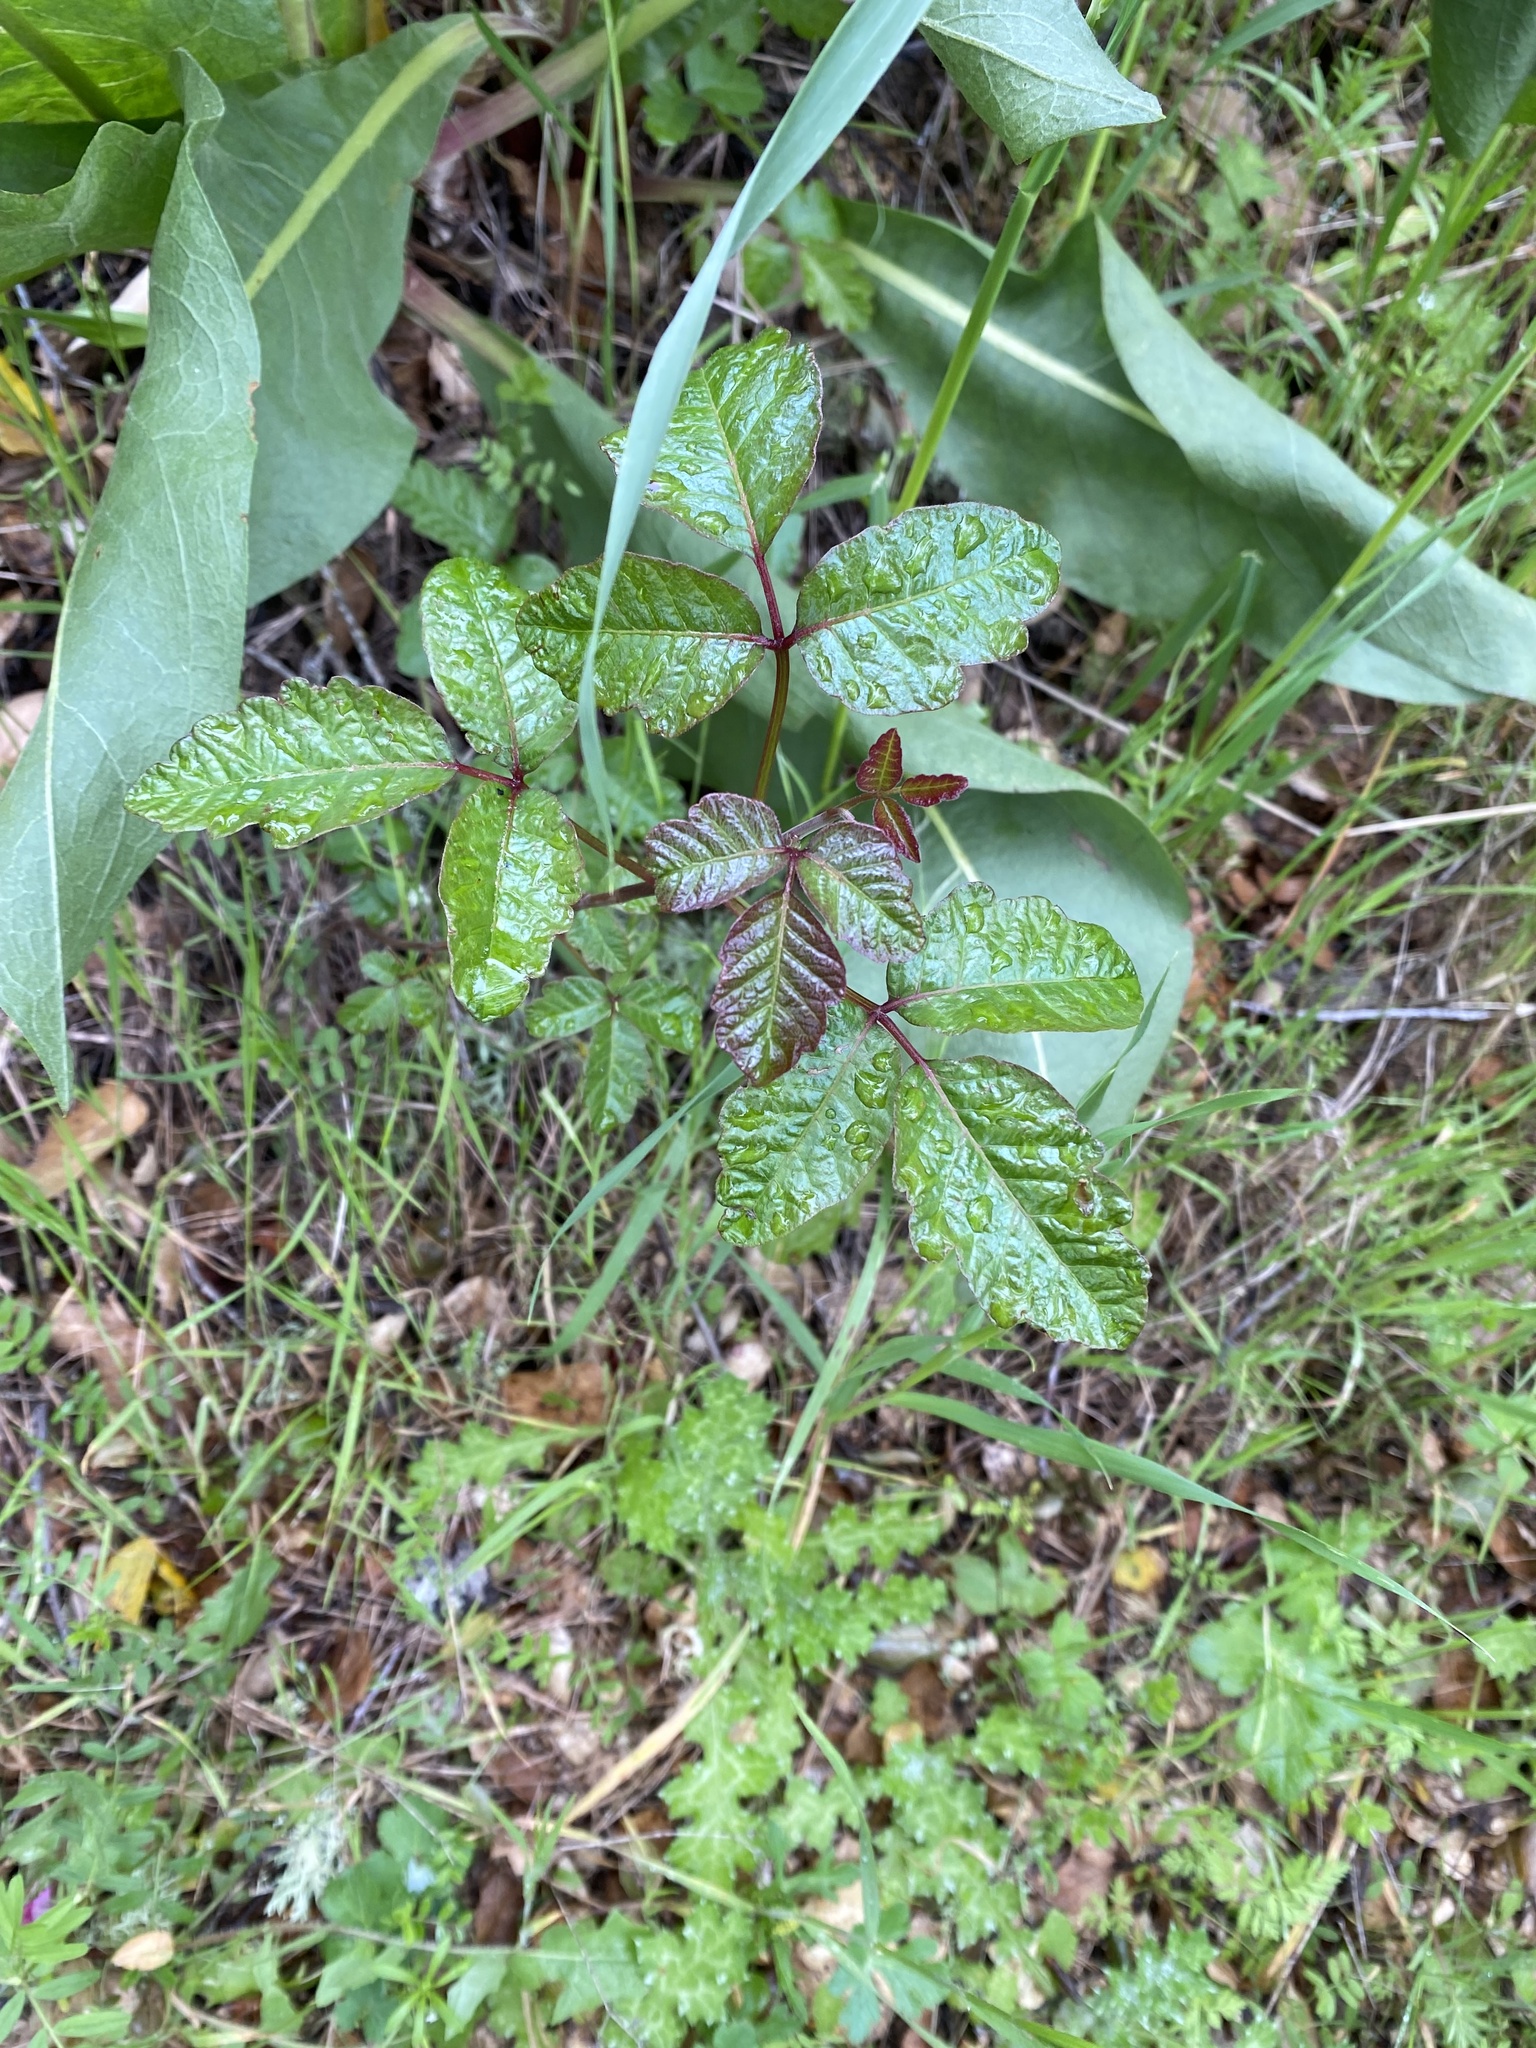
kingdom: Plantae
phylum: Tracheophyta
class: Magnoliopsida
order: Sapindales
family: Anacardiaceae
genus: Toxicodendron
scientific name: Toxicodendron diversilobum
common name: Pacific poison-oak
